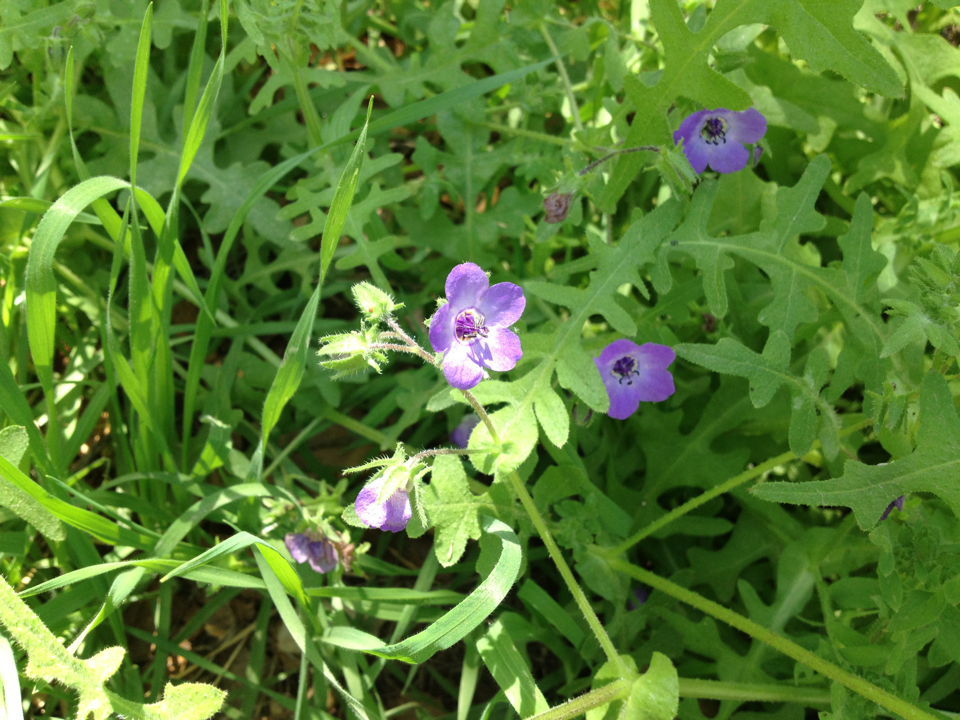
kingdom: Plantae
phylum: Tracheophyta
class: Magnoliopsida
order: Boraginales
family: Hydrophyllaceae
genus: Pholistoma
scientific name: Pholistoma auritum
